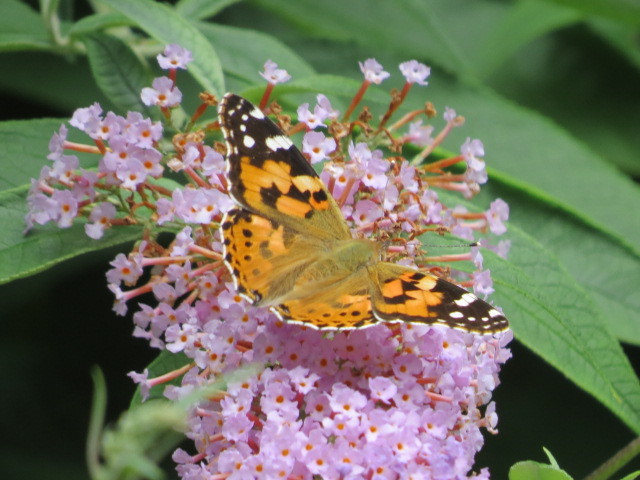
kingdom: Animalia
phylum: Arthropoda
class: Insecta
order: Lepidoptera
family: Nymphalidae
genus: Vanessa
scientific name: Vanessa cardui
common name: Painted lady
